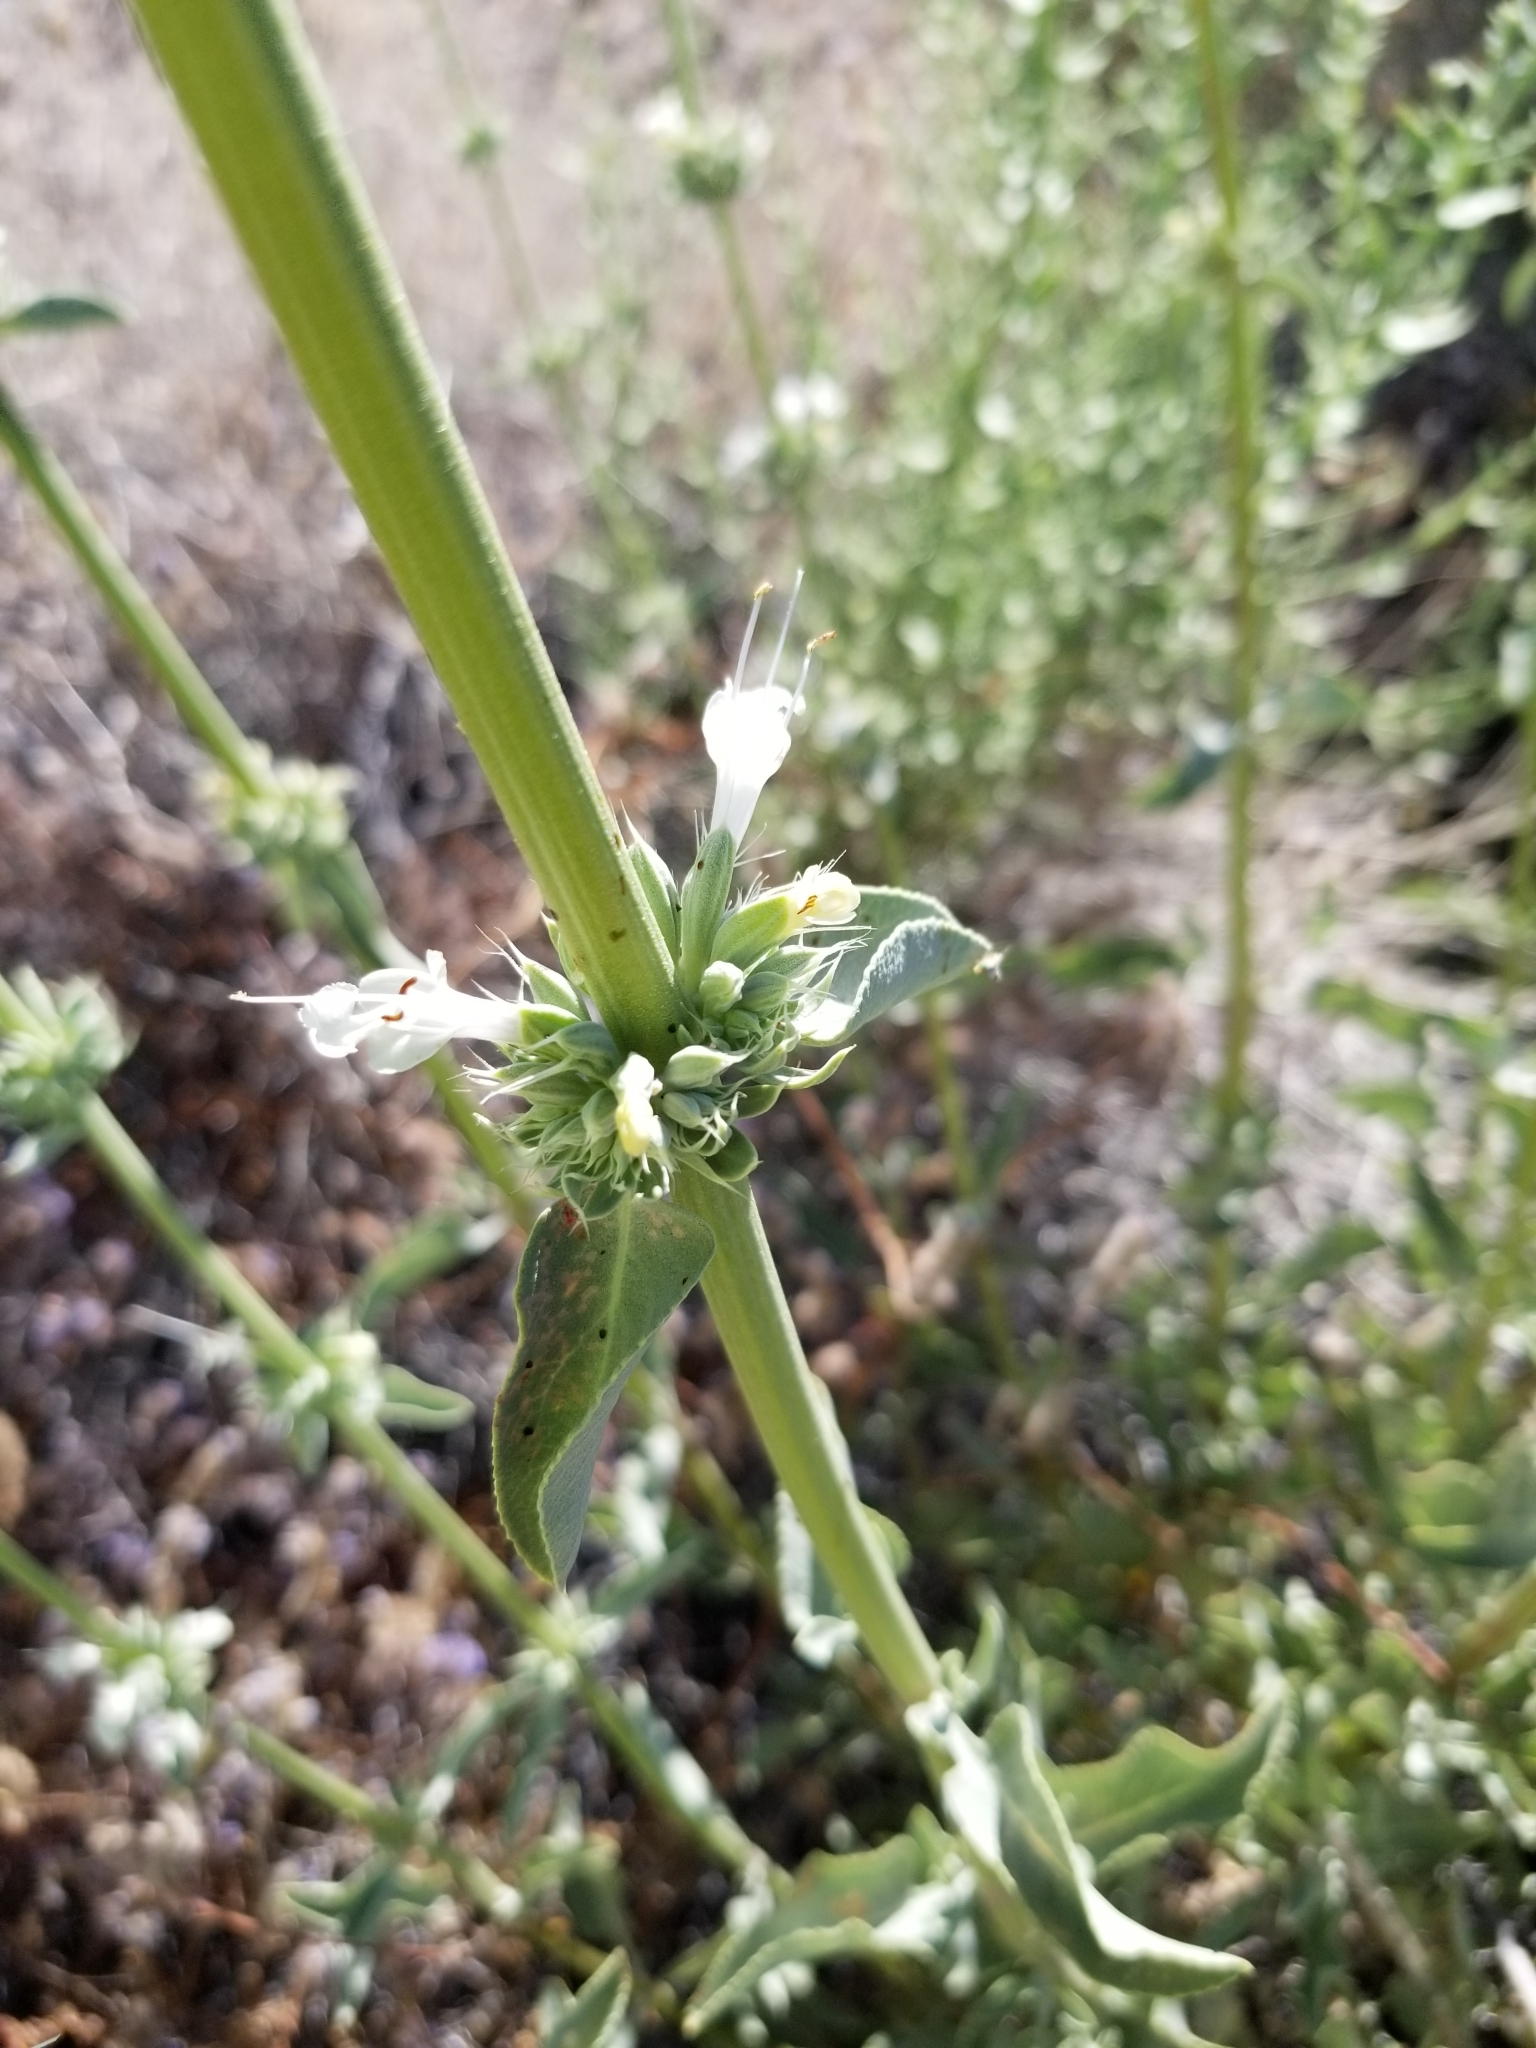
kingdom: Plantae
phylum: Tracheophyta
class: Magnoliopsida
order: Lamiales
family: Lamiaceae
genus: Salvia
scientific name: Salvia vaseyi
